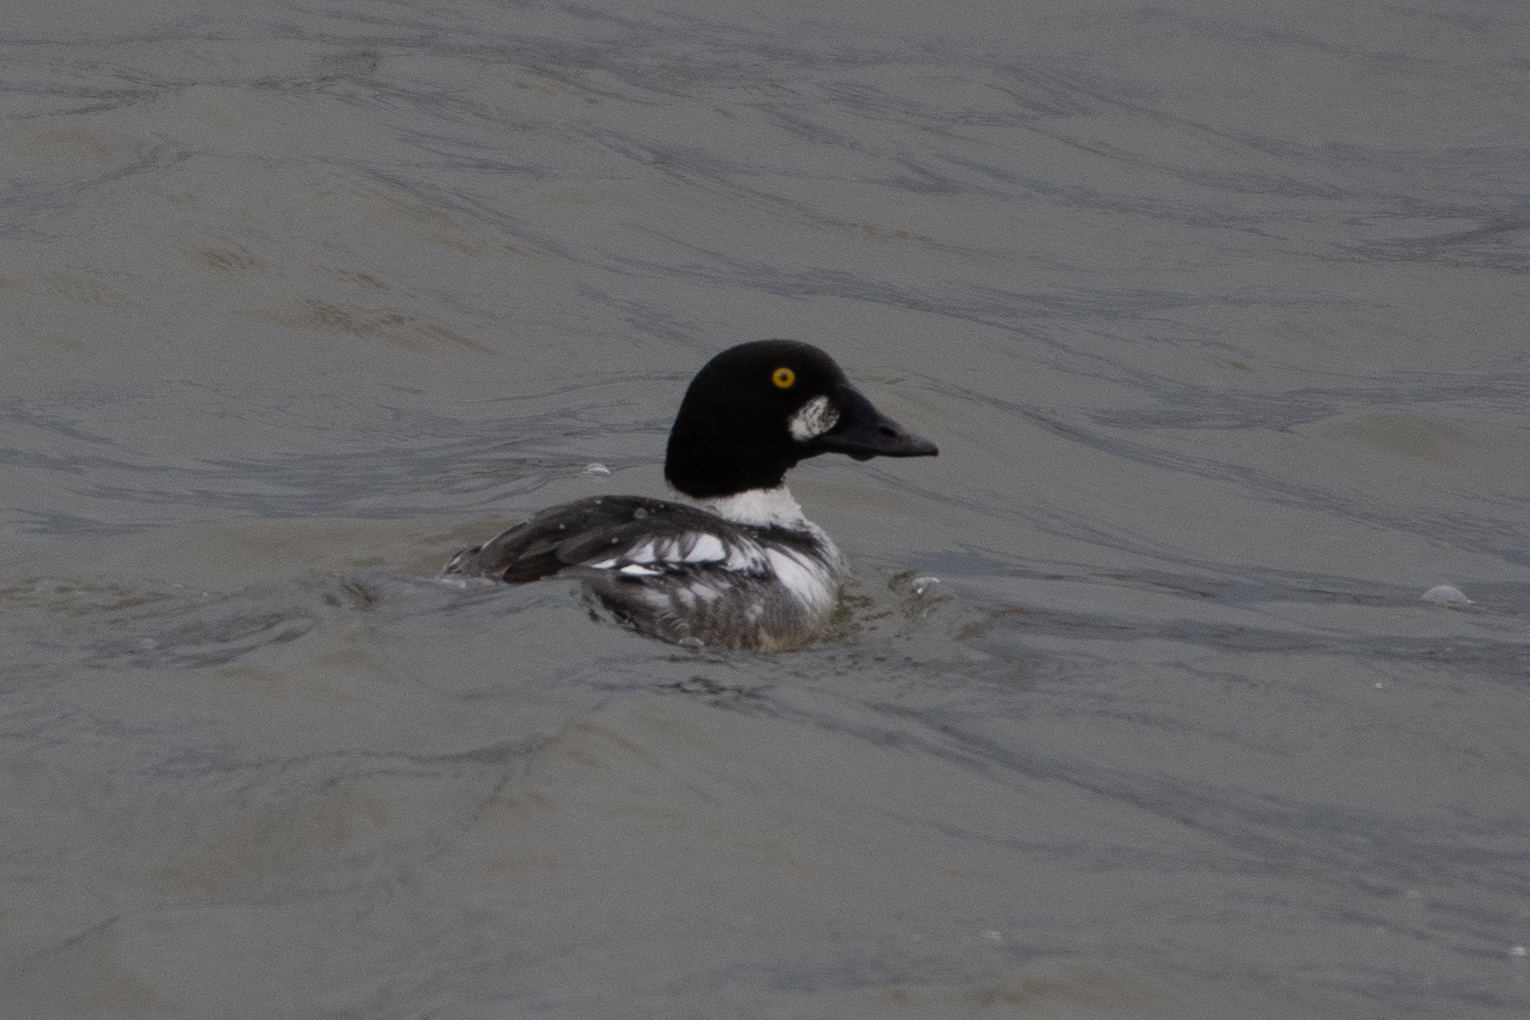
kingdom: Animalia
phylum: Chordata
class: Aves
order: Anseriformes
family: Anatidae
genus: Bucephala
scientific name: Bucephala clangula
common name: Common goldeneye
